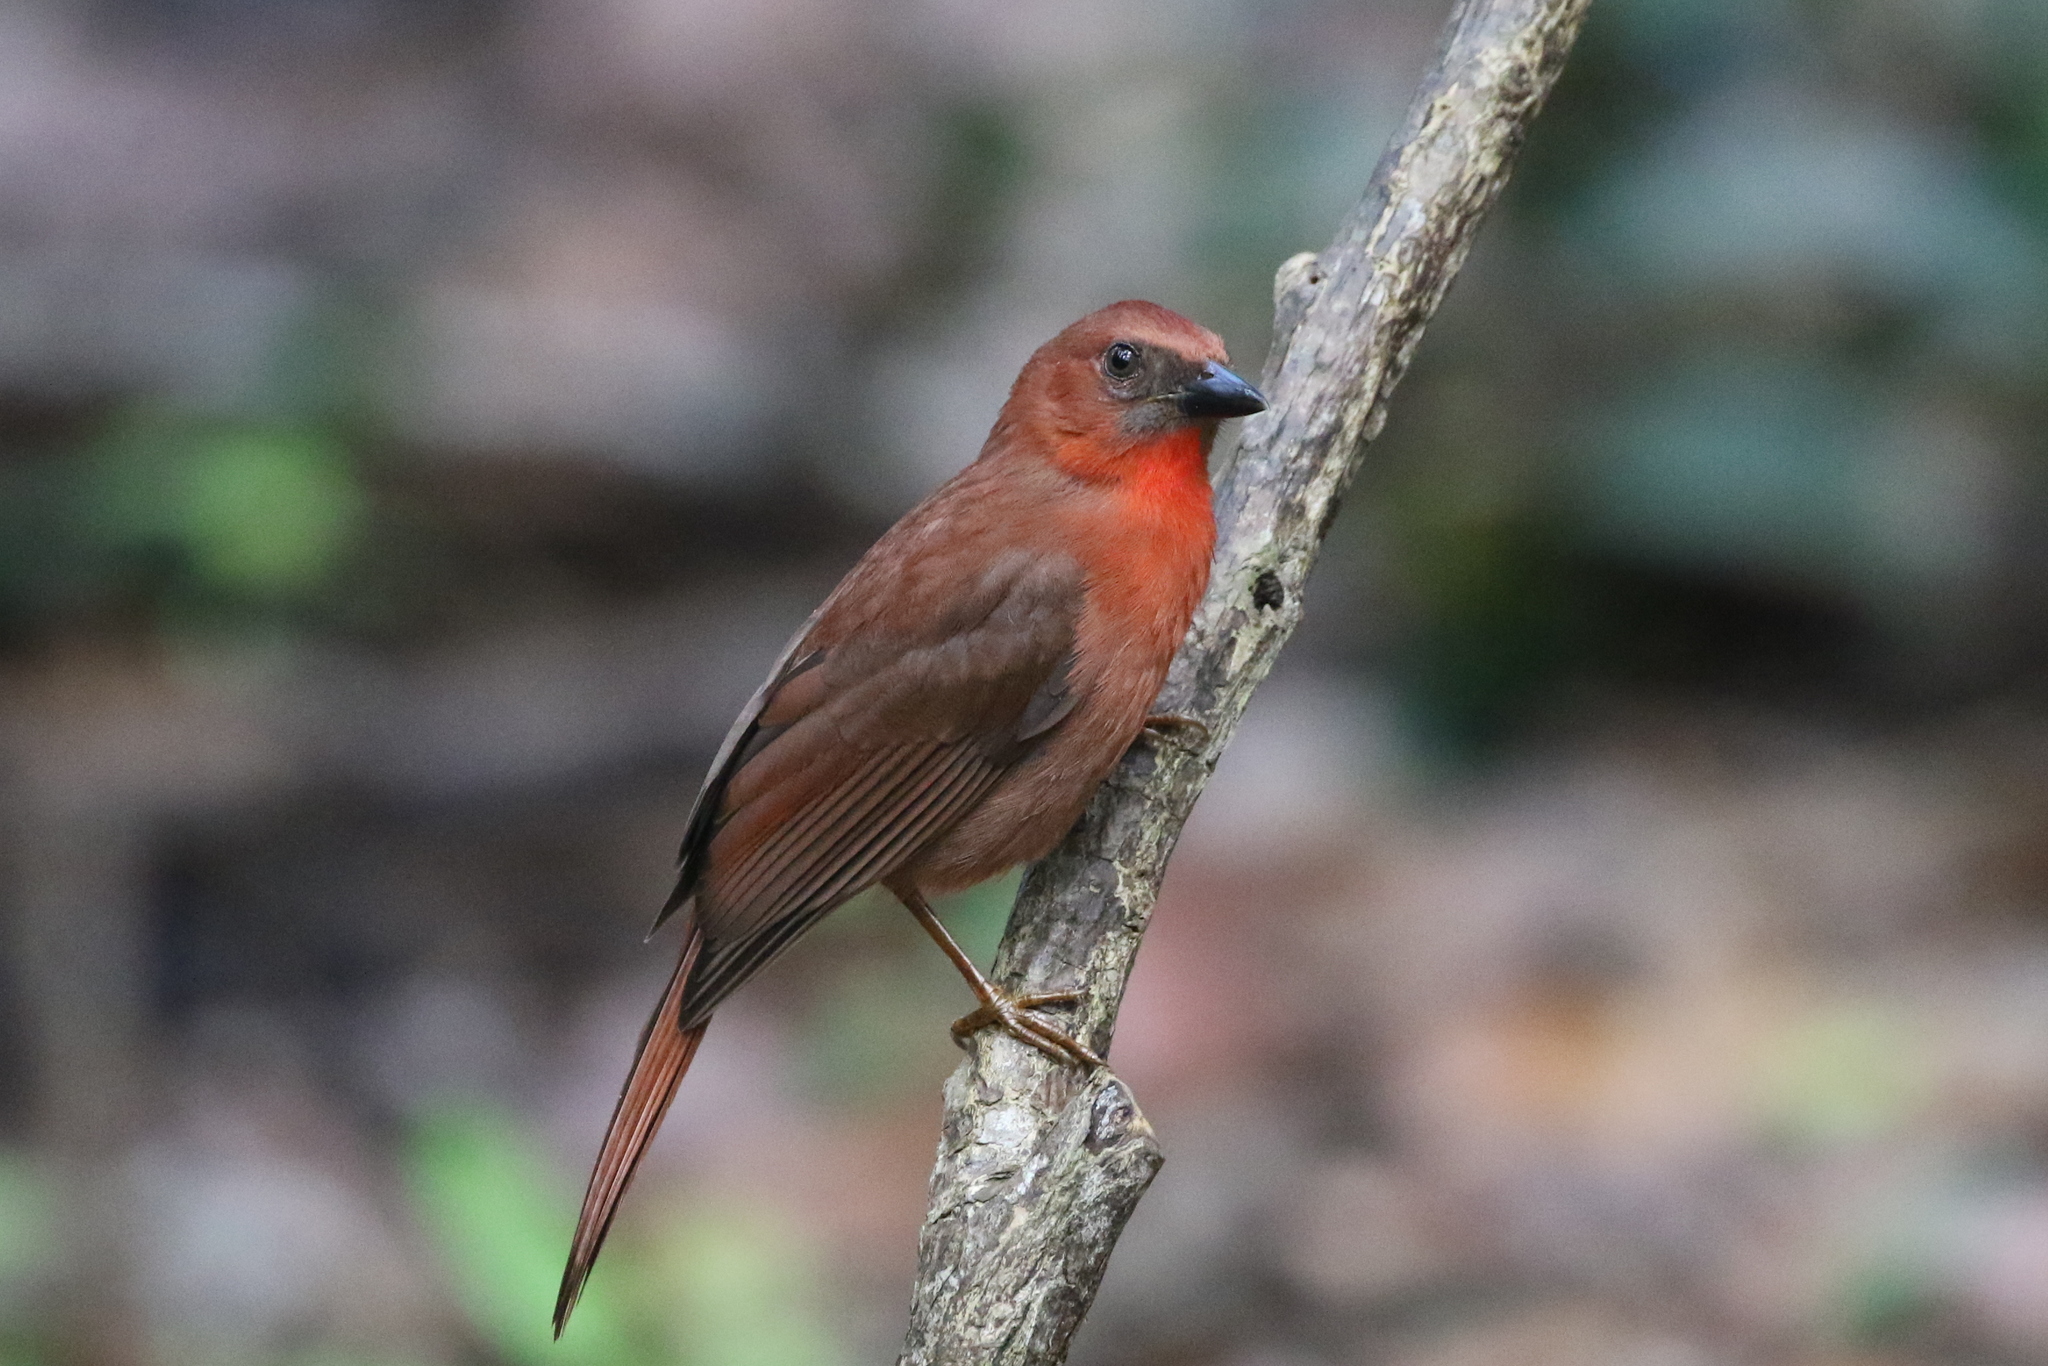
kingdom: Animalia
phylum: Chordata
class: Aves
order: Passeriformes
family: Cardinalidae
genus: Habia
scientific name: Habia fuscicauda
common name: Red-throated ant-tanager
